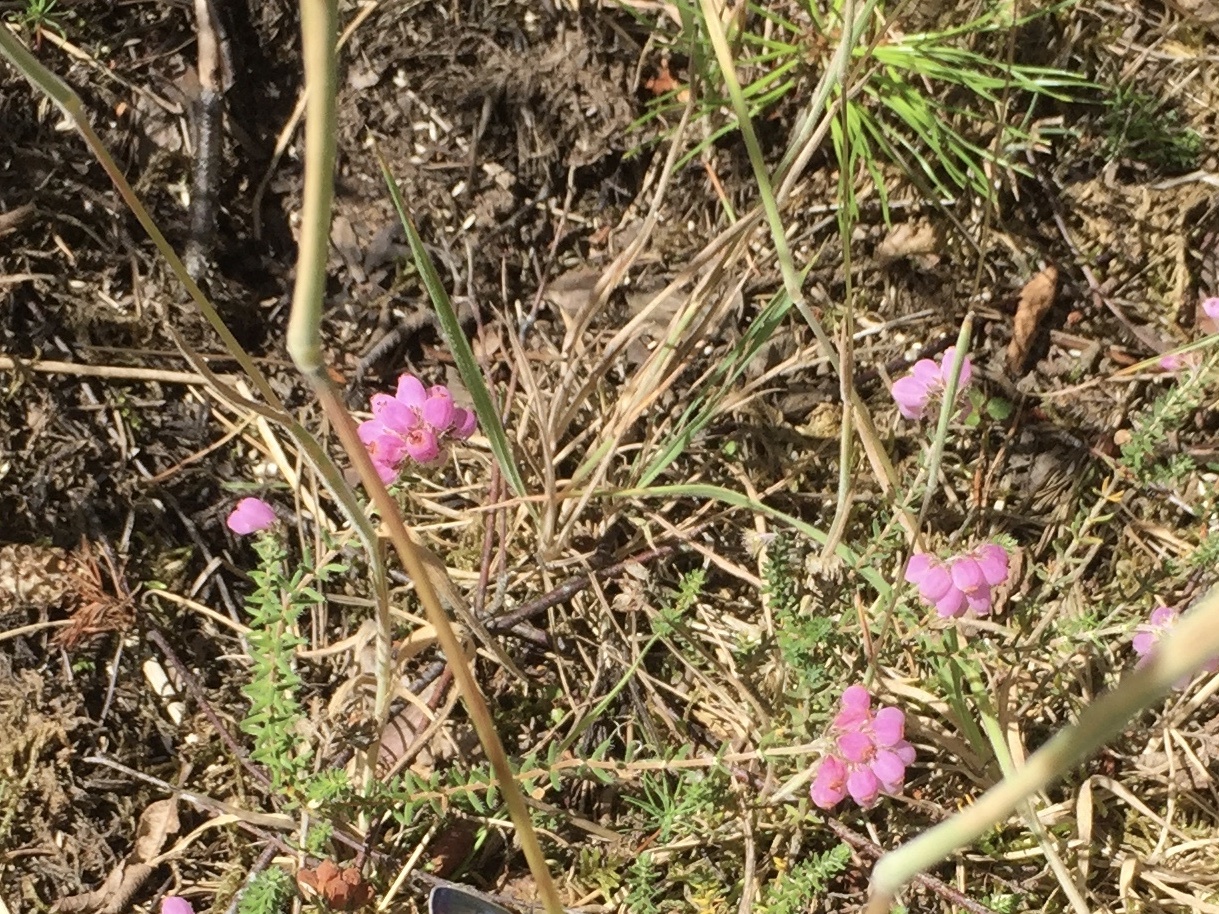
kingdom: Plantae
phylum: Tracheophyta
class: Magnoliopsida
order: Ericales
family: Ericaceae
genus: Erica
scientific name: Erica tetralix
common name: Cross-leaved heath
